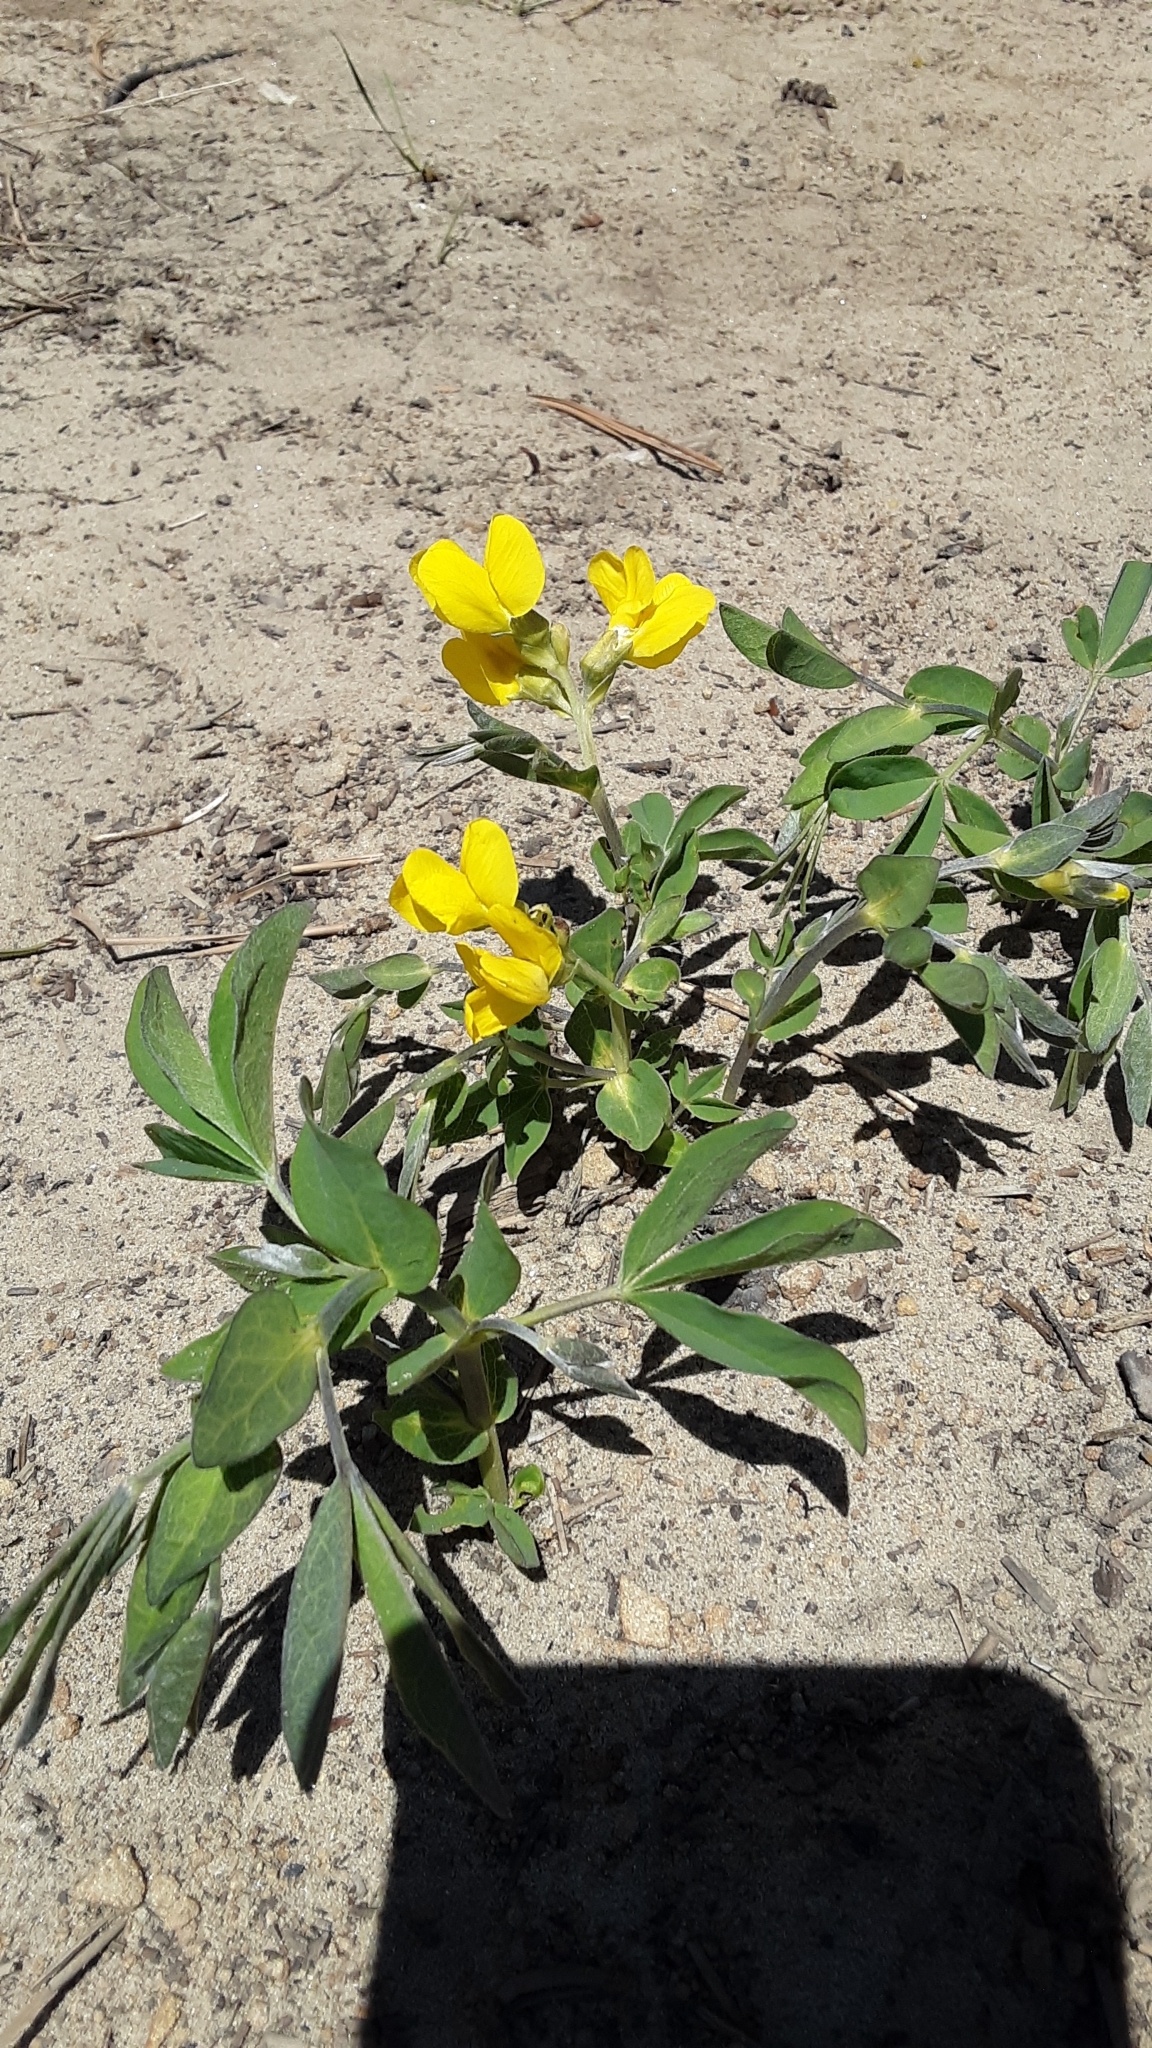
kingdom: Plantae
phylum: Tracheophyta
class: Magnoliopsida
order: Fabales
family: Fabaceae
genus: Thermopsis
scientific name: Thermopsis rhombifolia
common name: Circle-pod-pea
